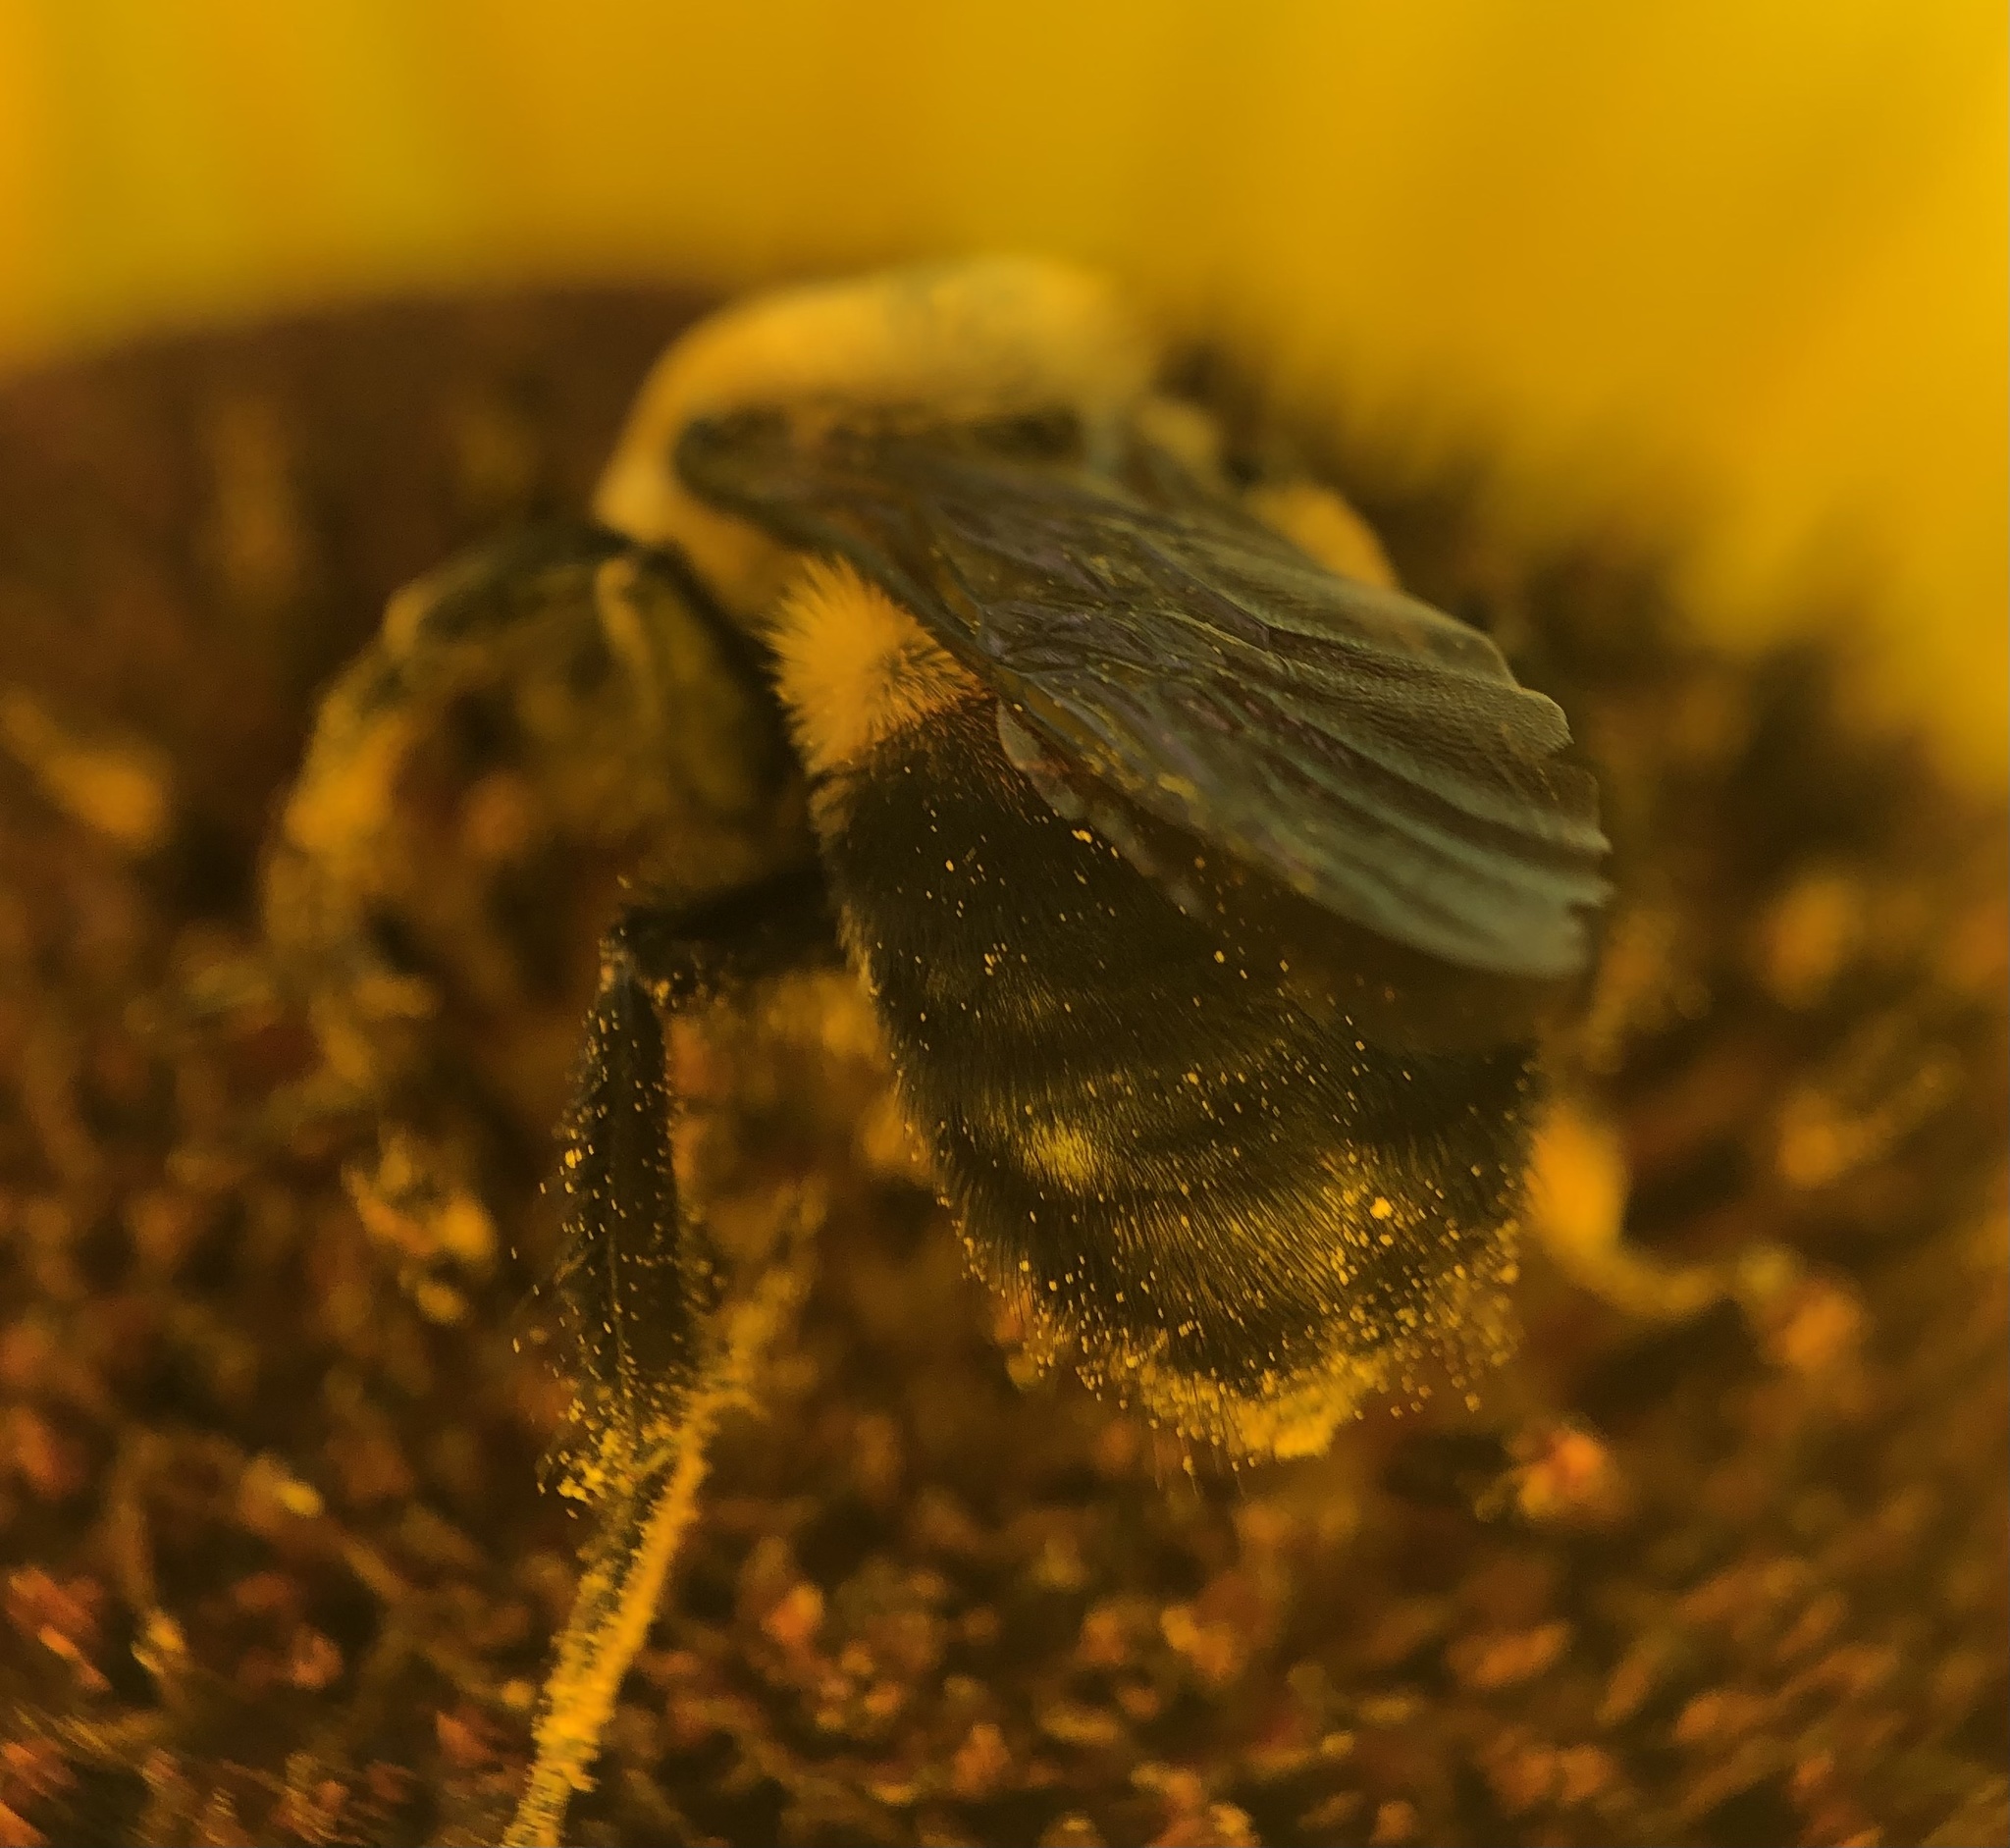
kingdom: Animalia
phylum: Arthropoda
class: Insecta
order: Hymenoptera
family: Apidae
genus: Bombus
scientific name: Bombus griseocollis
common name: Brown-belted bumble bee
